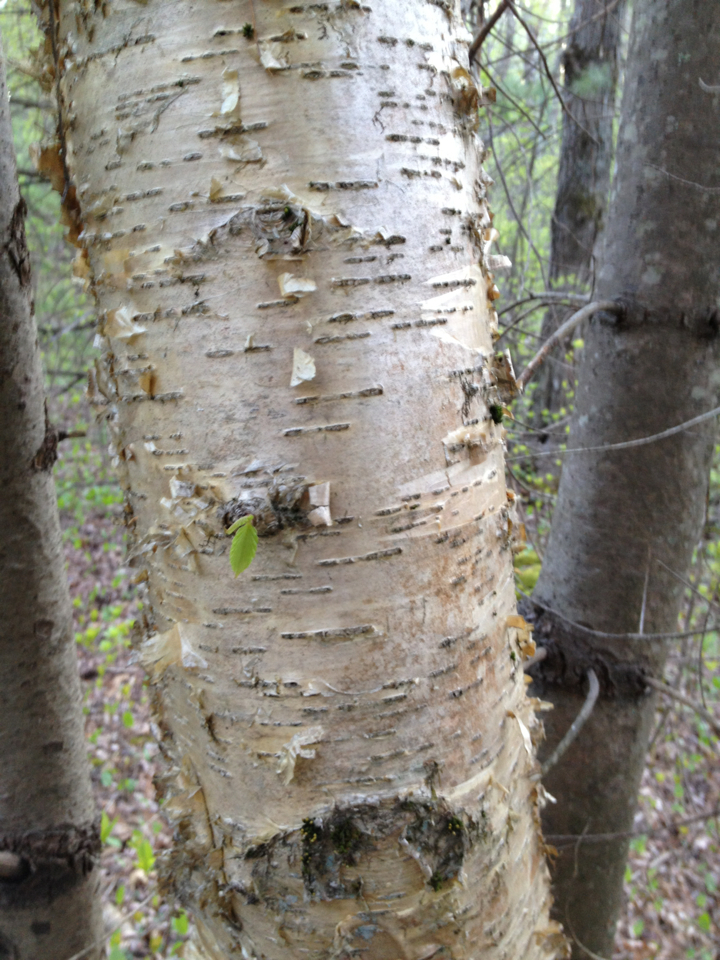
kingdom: Plantae
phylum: Tracheophyta
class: Magnoliopsida
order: Fagales
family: Betulaceae
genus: Betula
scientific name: Betula alleghaniensis
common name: Yellow birch
